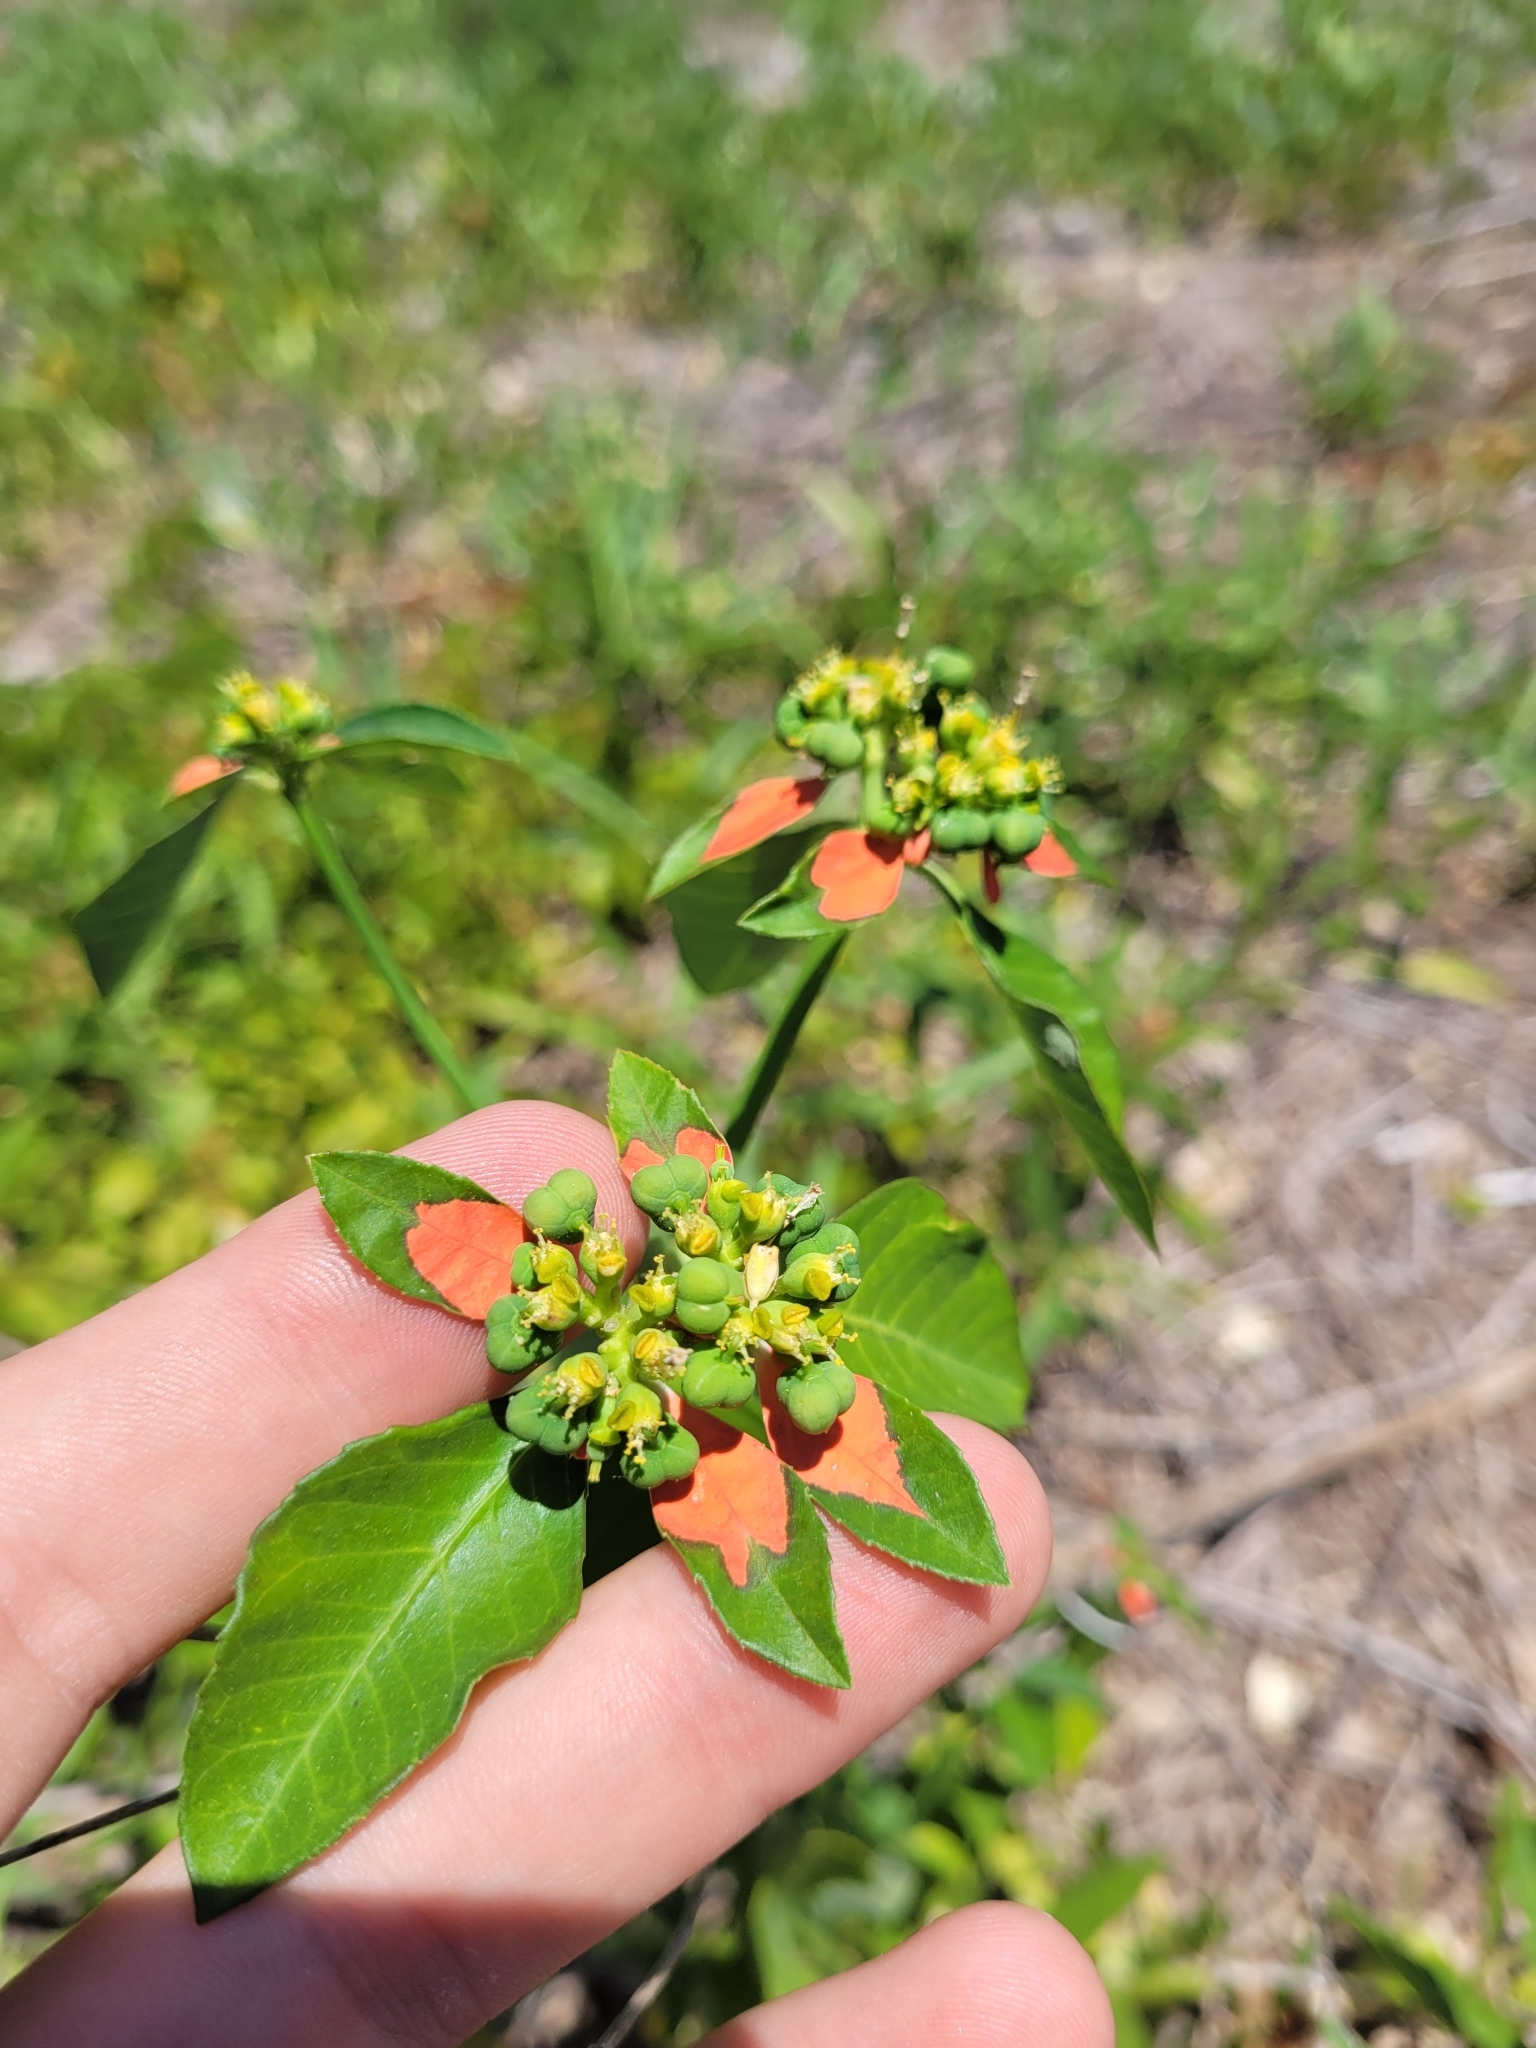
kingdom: Plantae
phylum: Tracheophyta
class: Magnoliopsida
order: Malpighiales
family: Euphorbiaceae
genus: Euphorbia
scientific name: Euphorbia heterophylla
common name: Mexican fireplant
